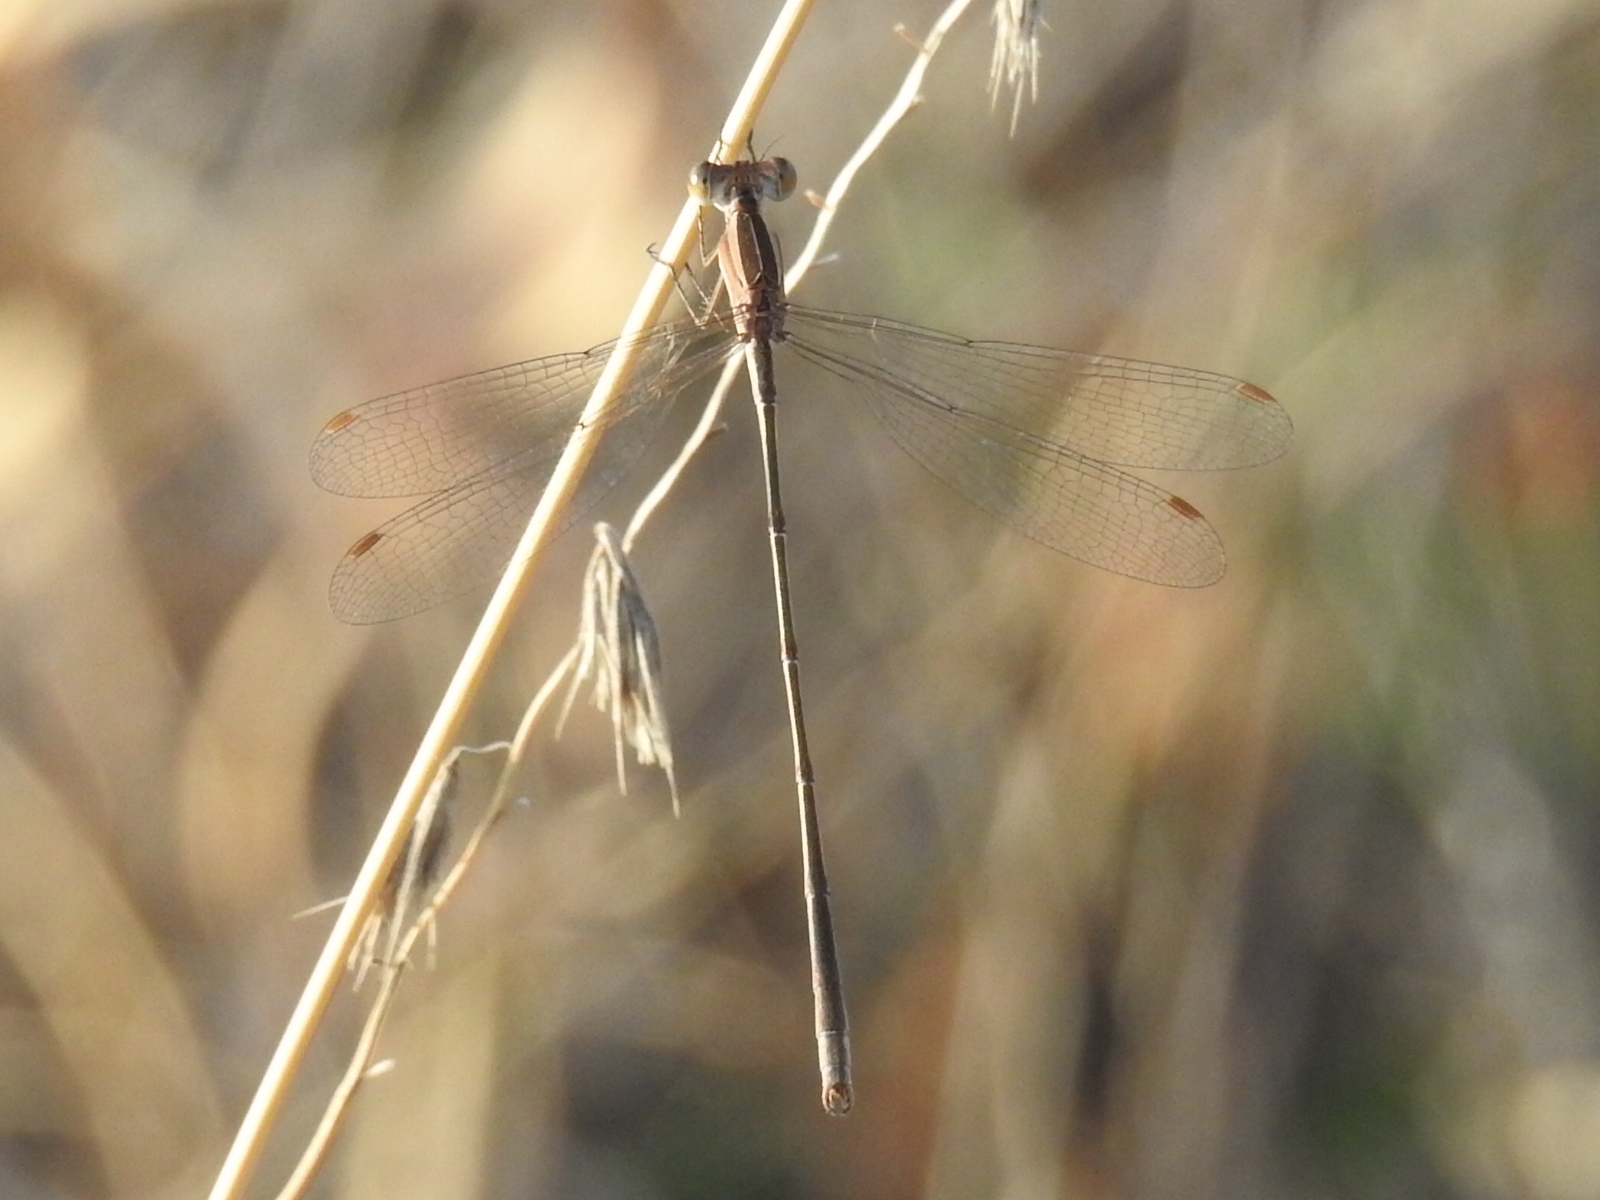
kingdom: Animalia
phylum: Arthropoda
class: Insecta
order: Odonata
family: Lestidae
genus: Lestes
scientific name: Lestes alacer
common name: Plateau spreadwing
